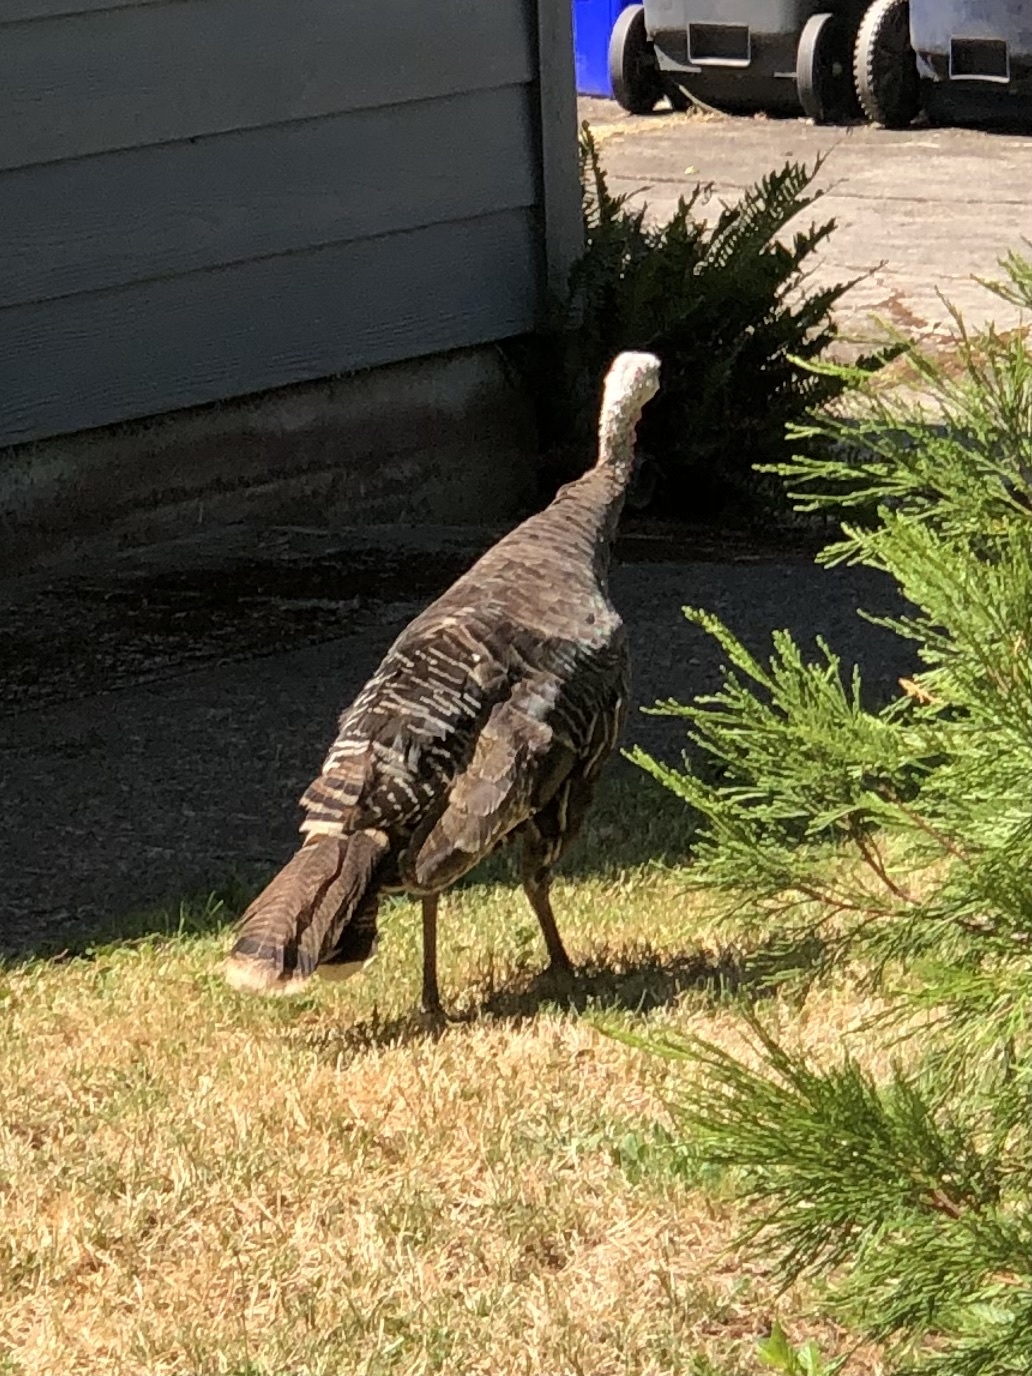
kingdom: Animalia
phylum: Chordata
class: Aves
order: Galliformes
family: Phasianidae
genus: Meleagris
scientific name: Meleagris gallopavo
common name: Wild turkey
